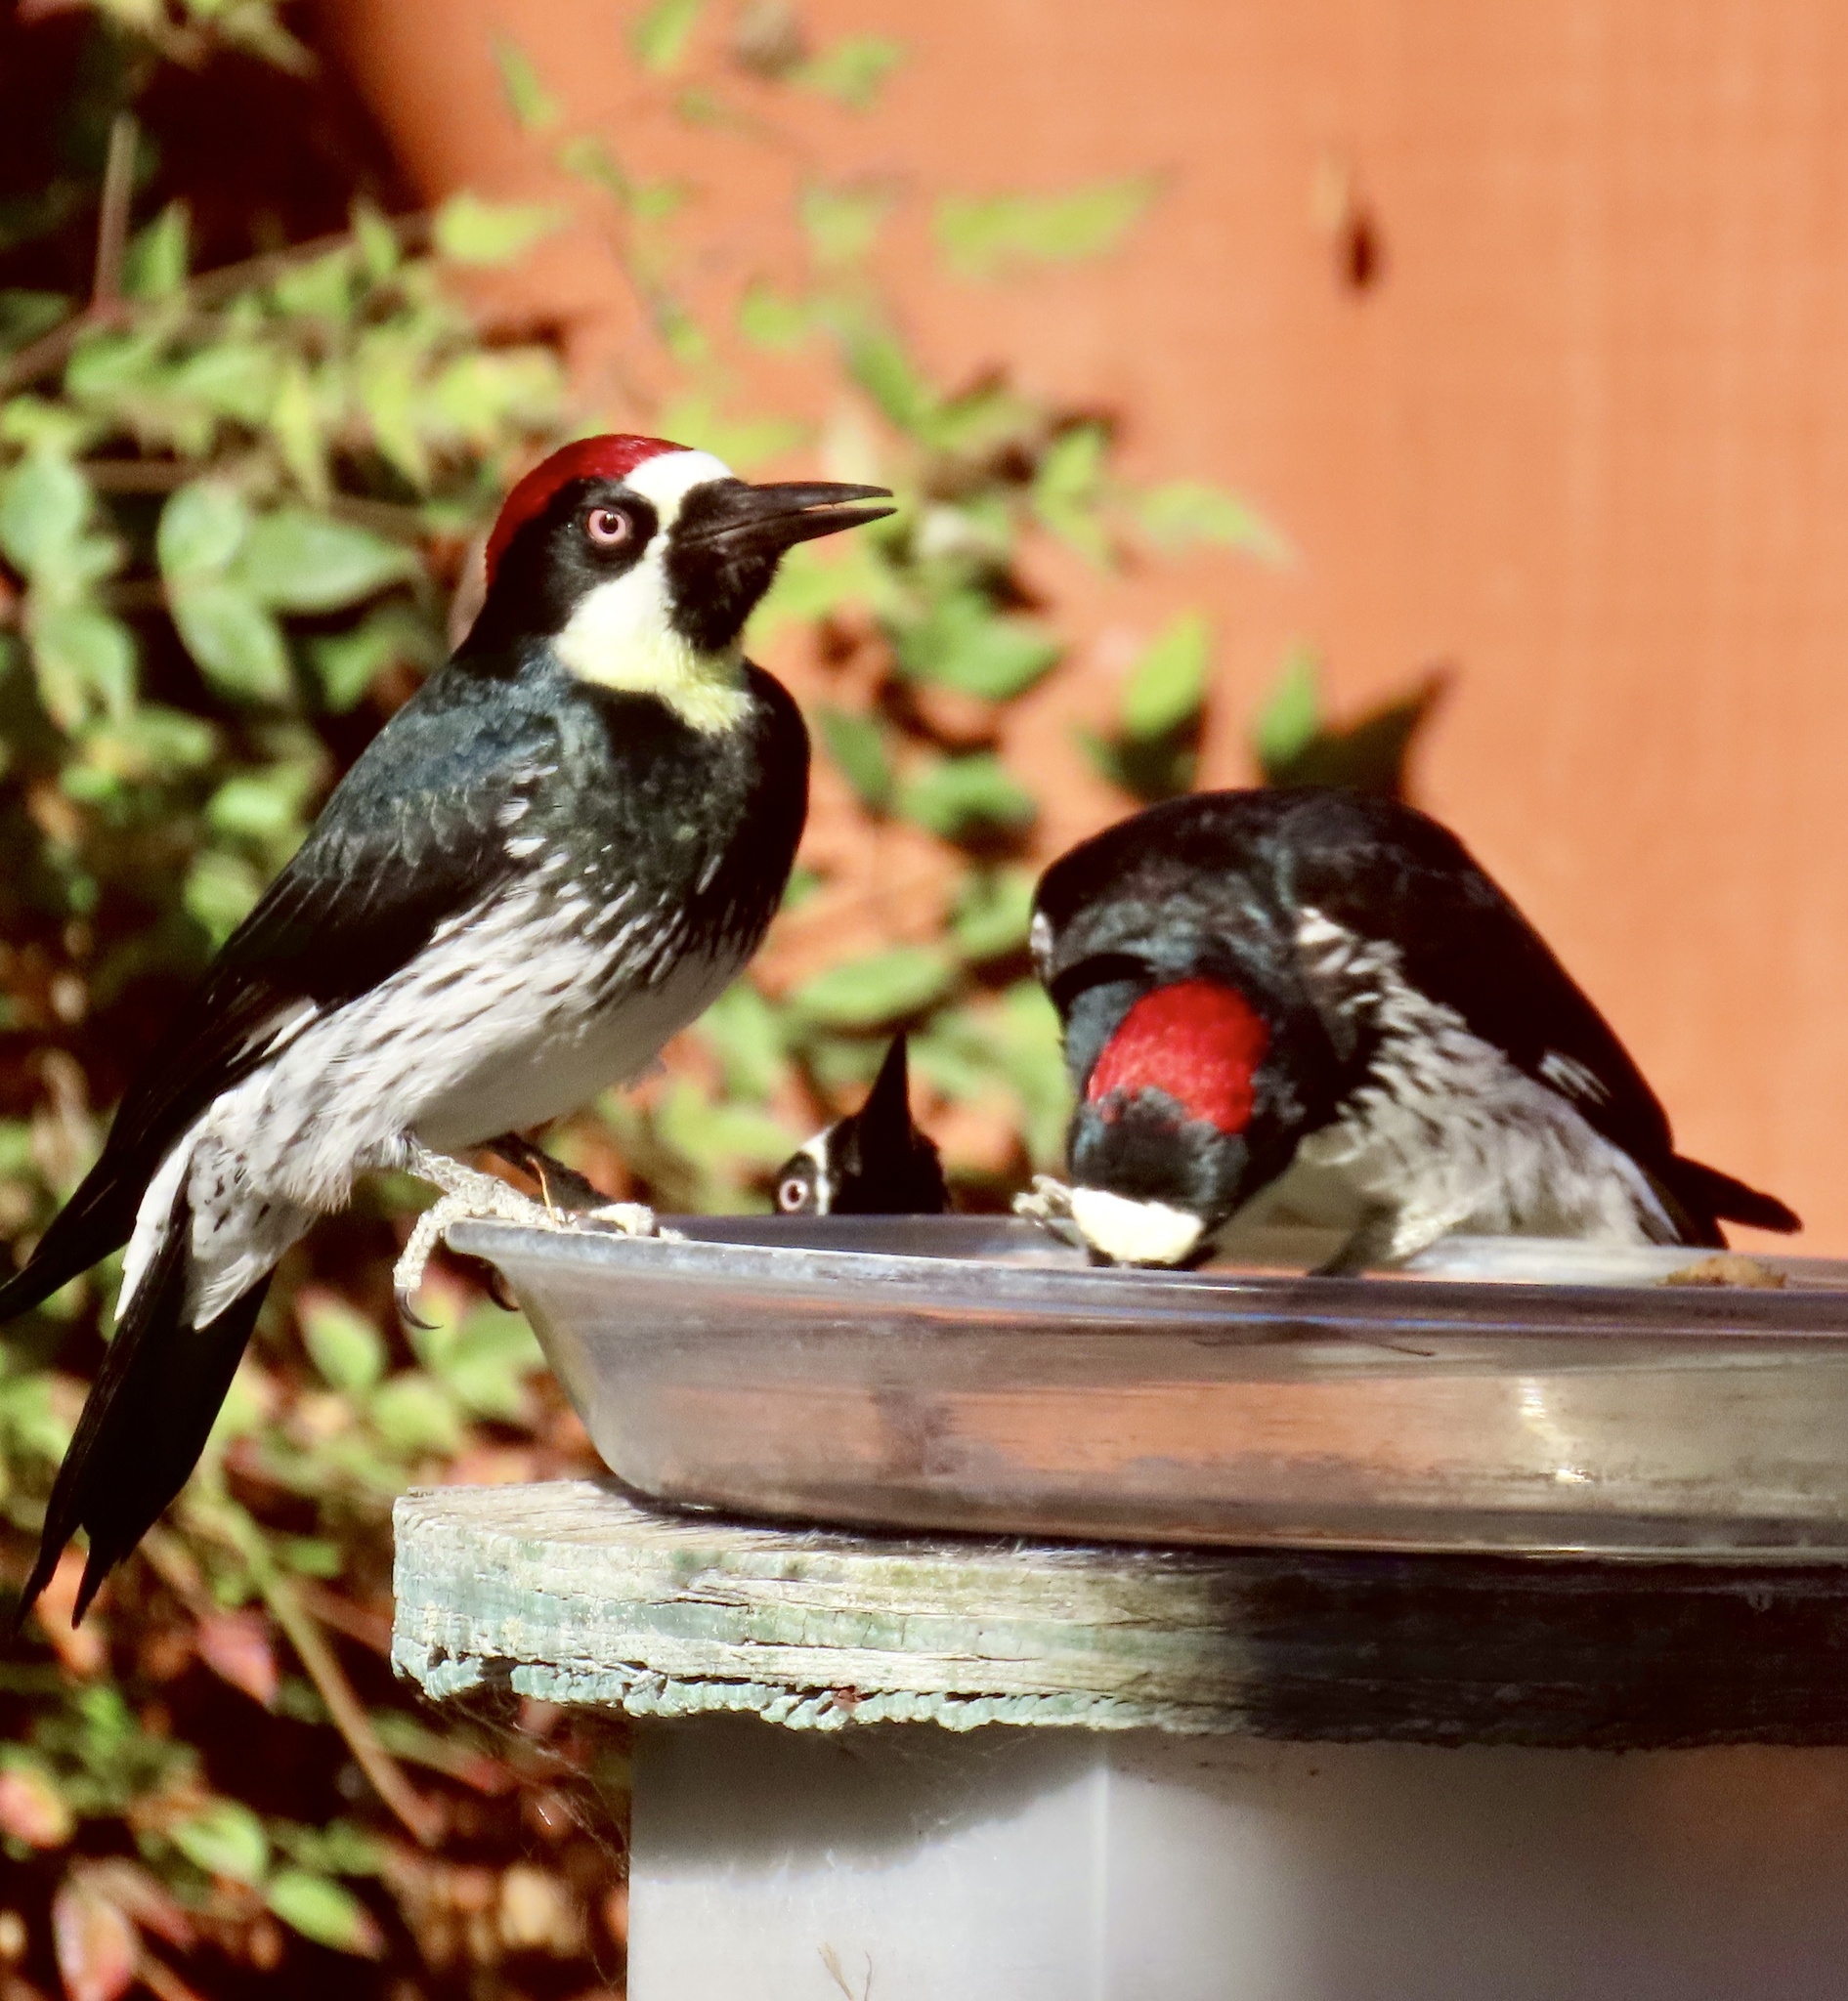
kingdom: Animalia
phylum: Chordata
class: Aves
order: Piciformes
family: Picidae
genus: Melanerpes
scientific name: Melanerpes formicivorus
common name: Acorn woodpecker
